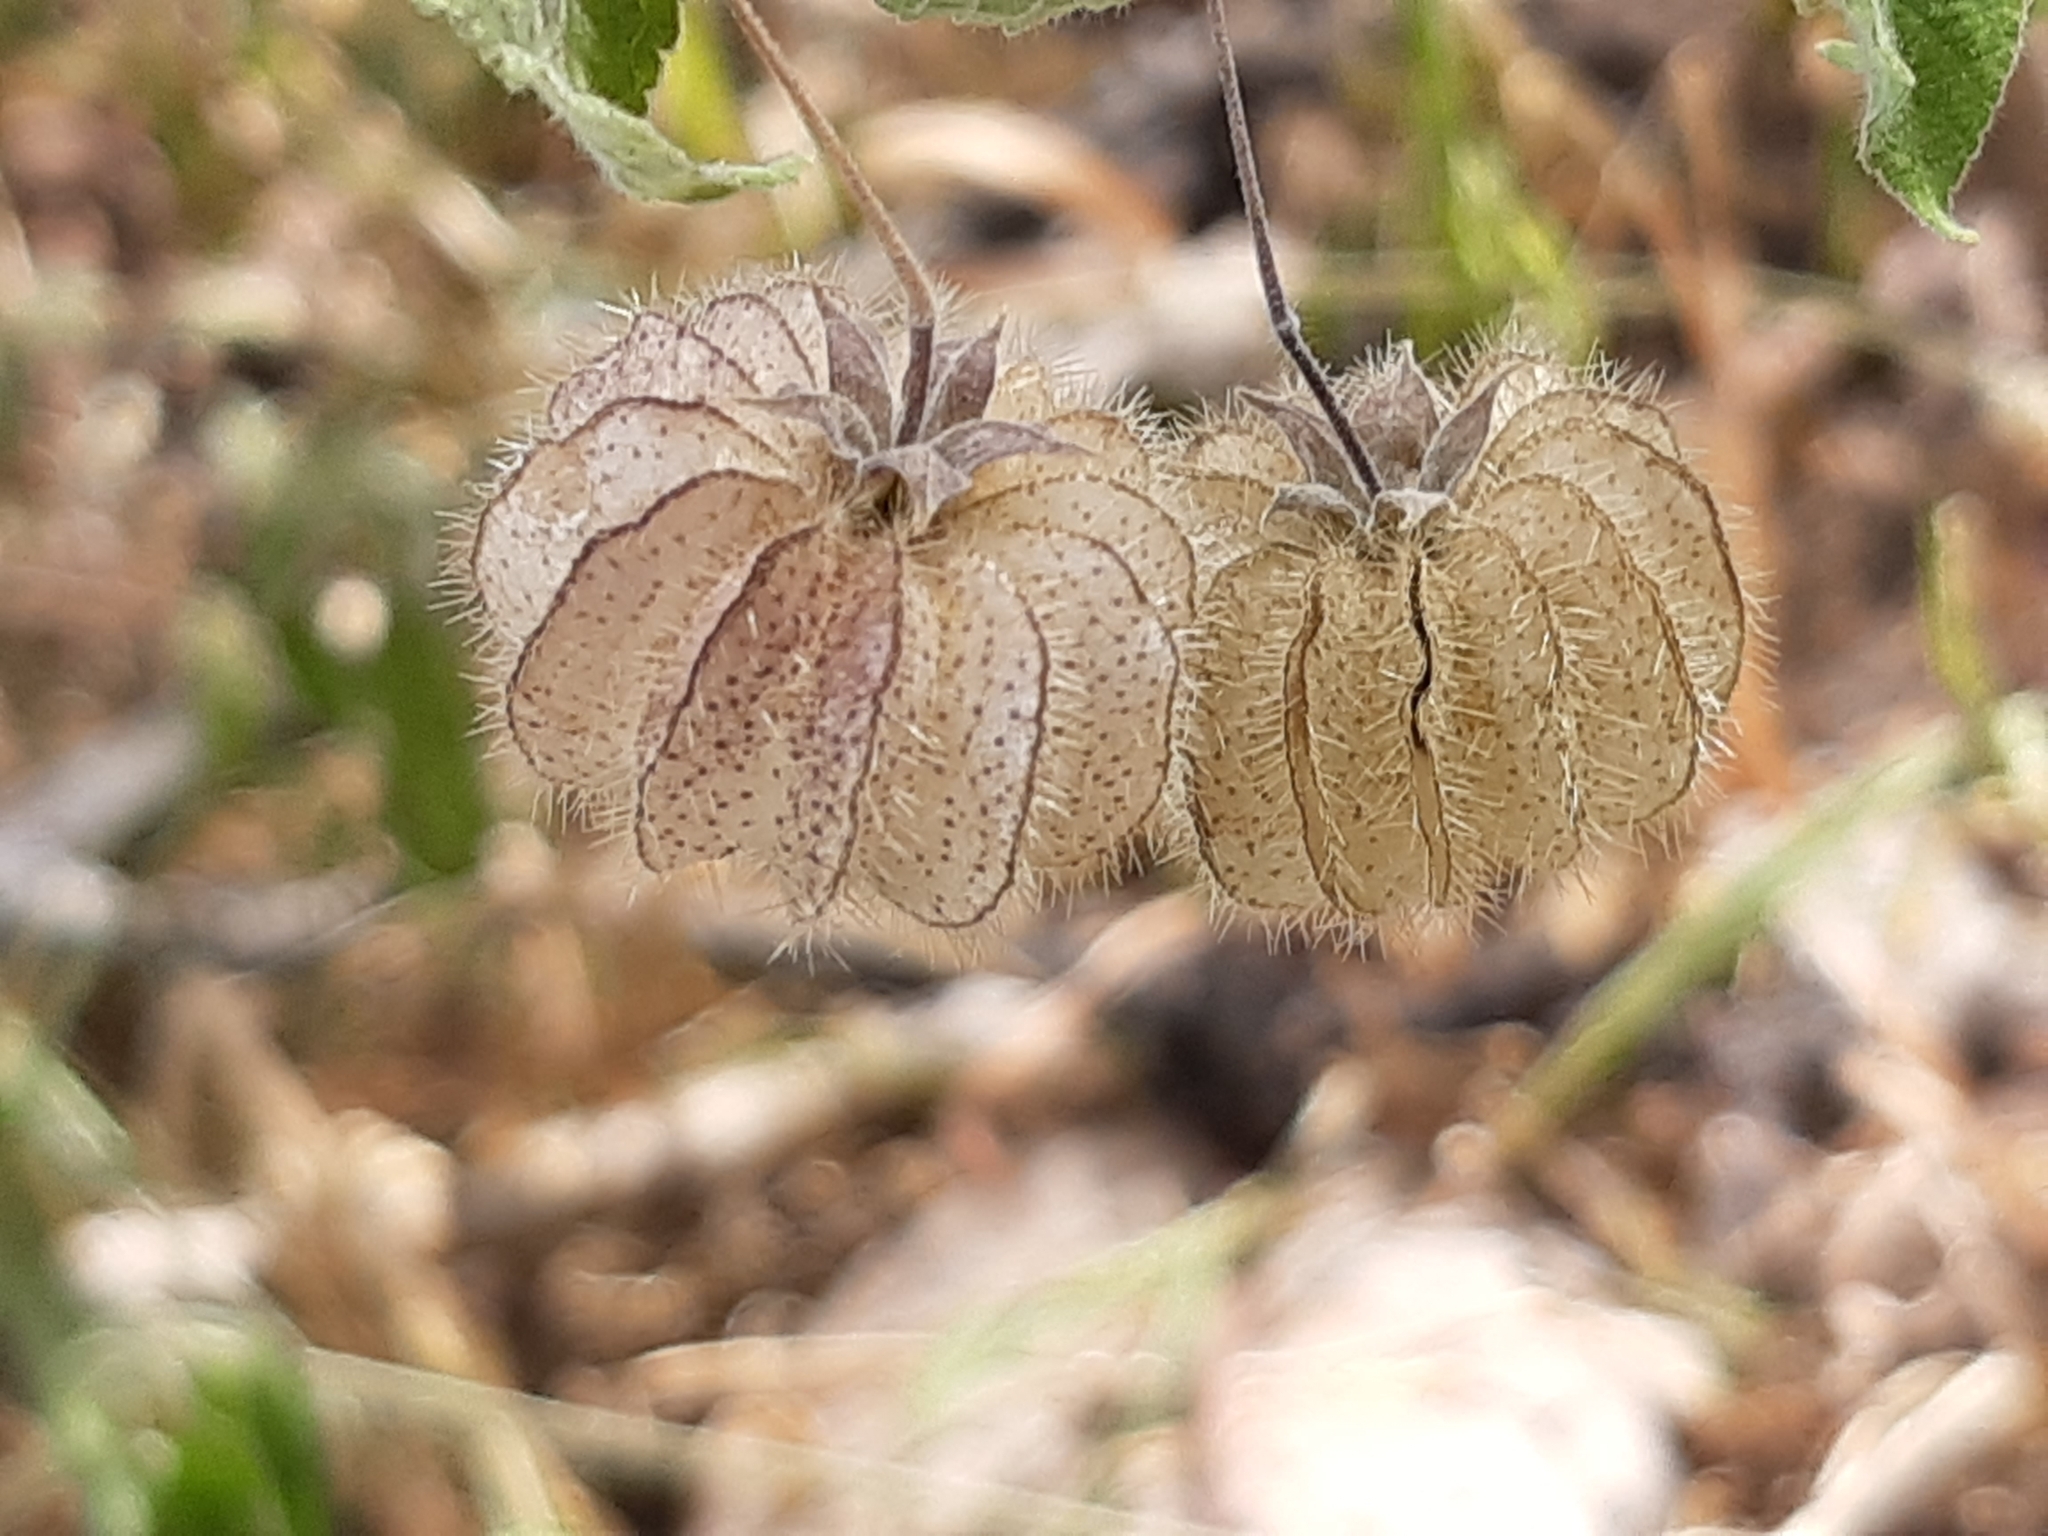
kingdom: Plantae
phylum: Tracheophyta
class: Magnoliopsida
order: Malvales
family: Malvaceae
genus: Herissantia
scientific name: Herissantia crispa
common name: Bladdermallow
